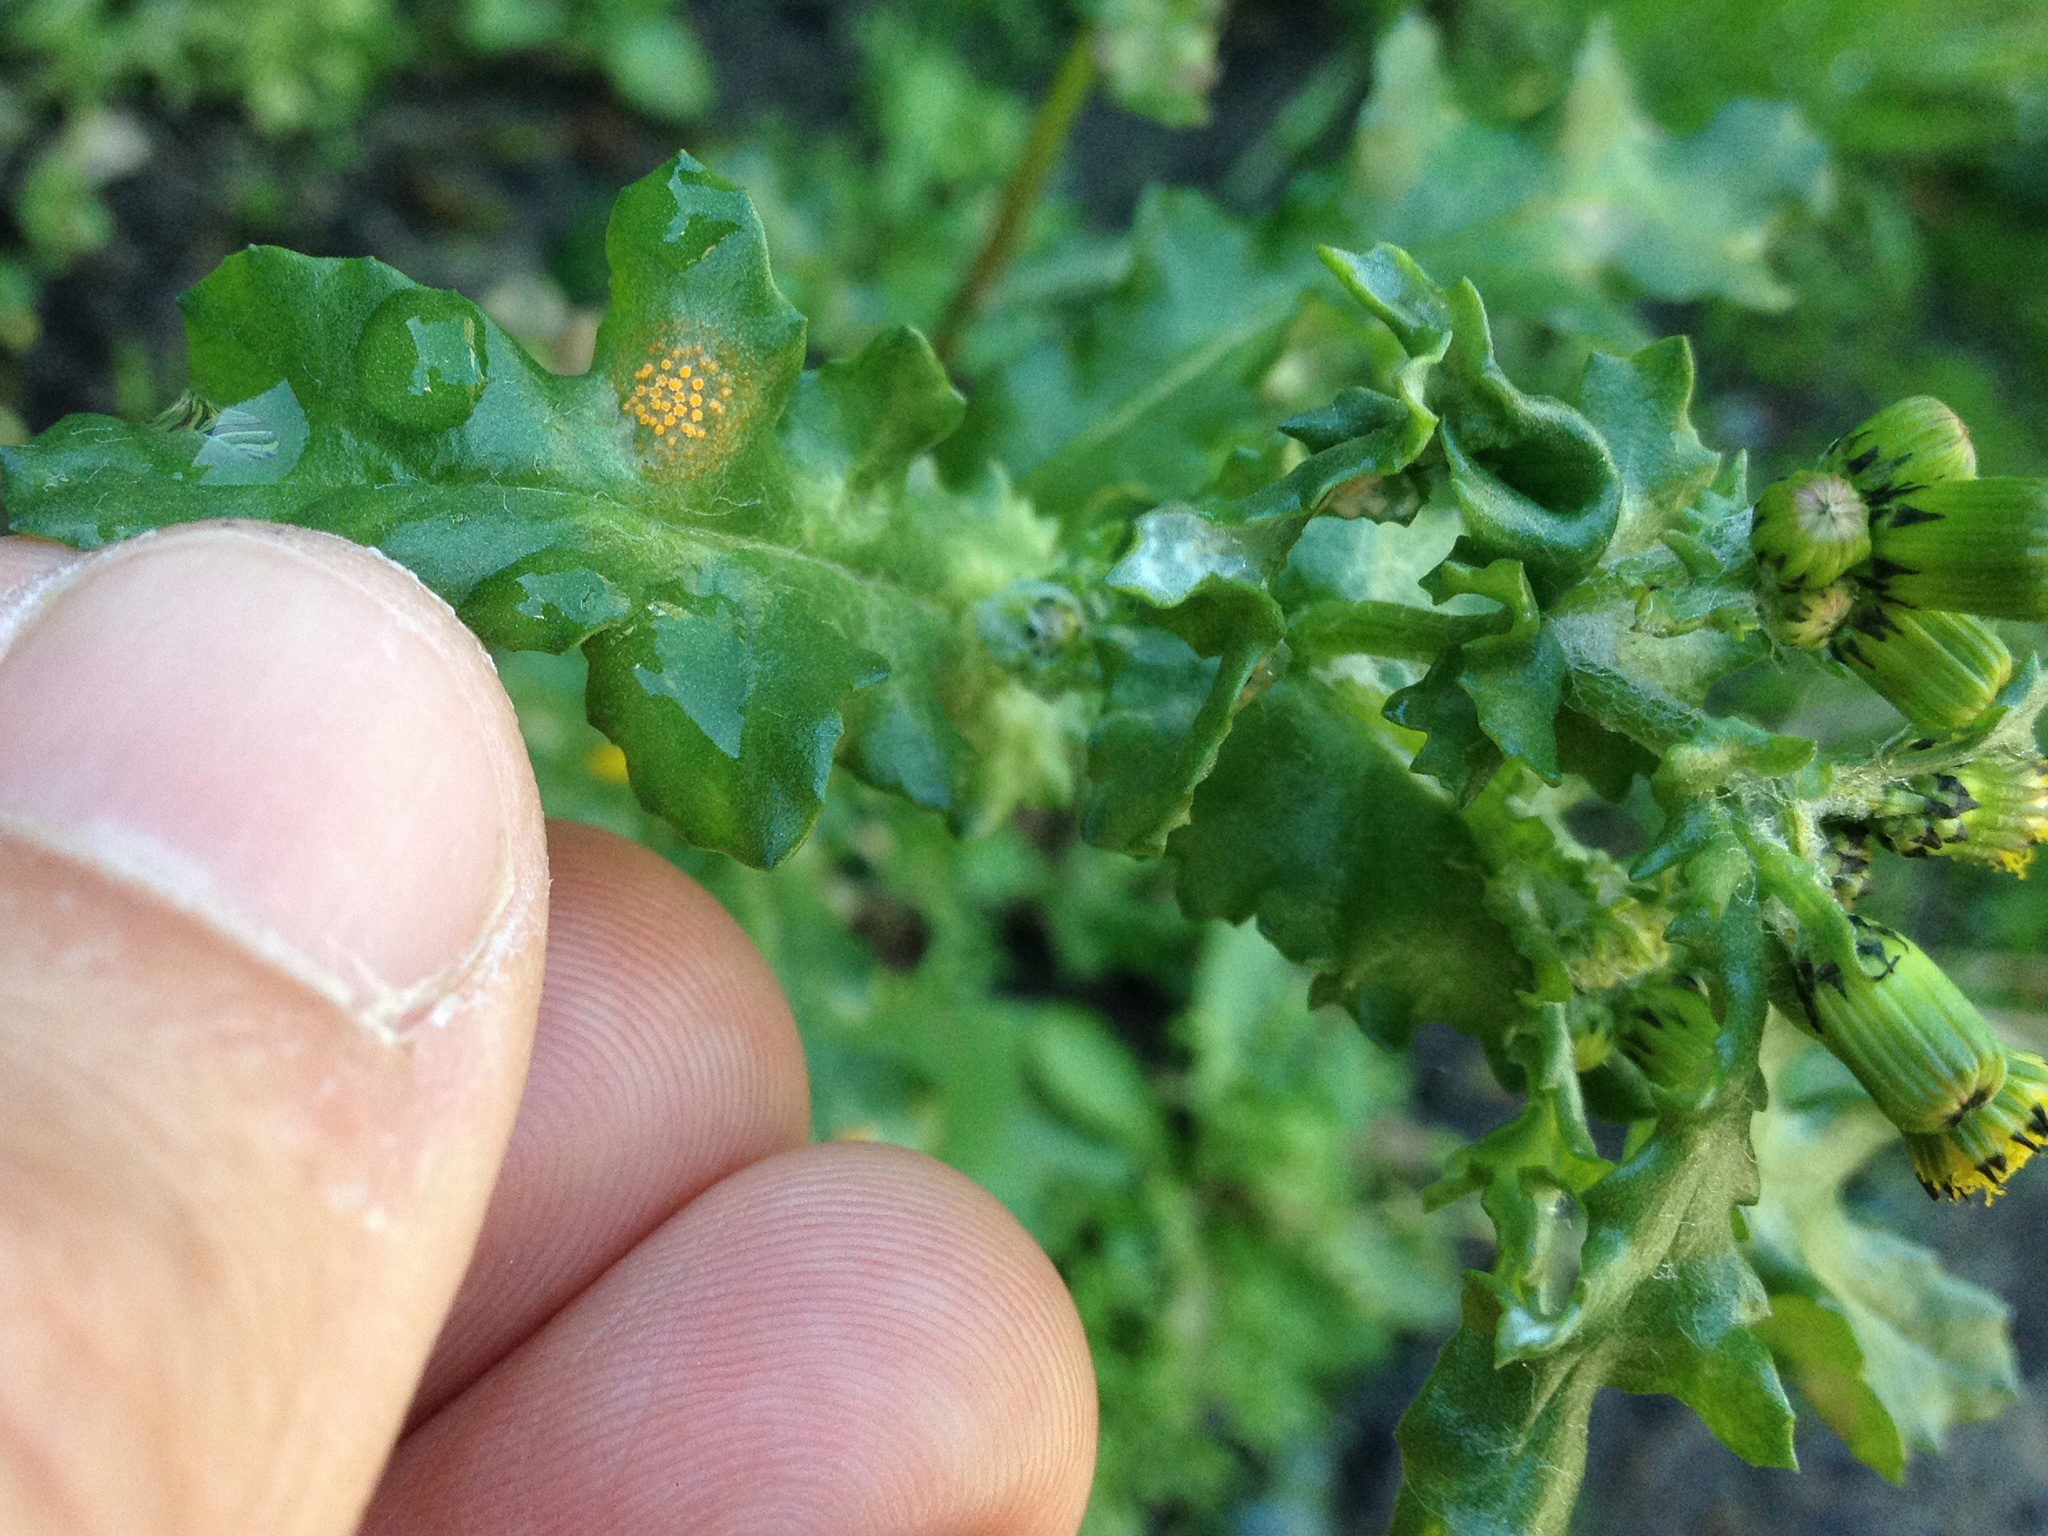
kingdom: Fungi
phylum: Basidiomycota
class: Pucciniomycetes
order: Pucciniales
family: Pucciniaceae
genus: Puccinia
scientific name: Puccinia lagenophorae
